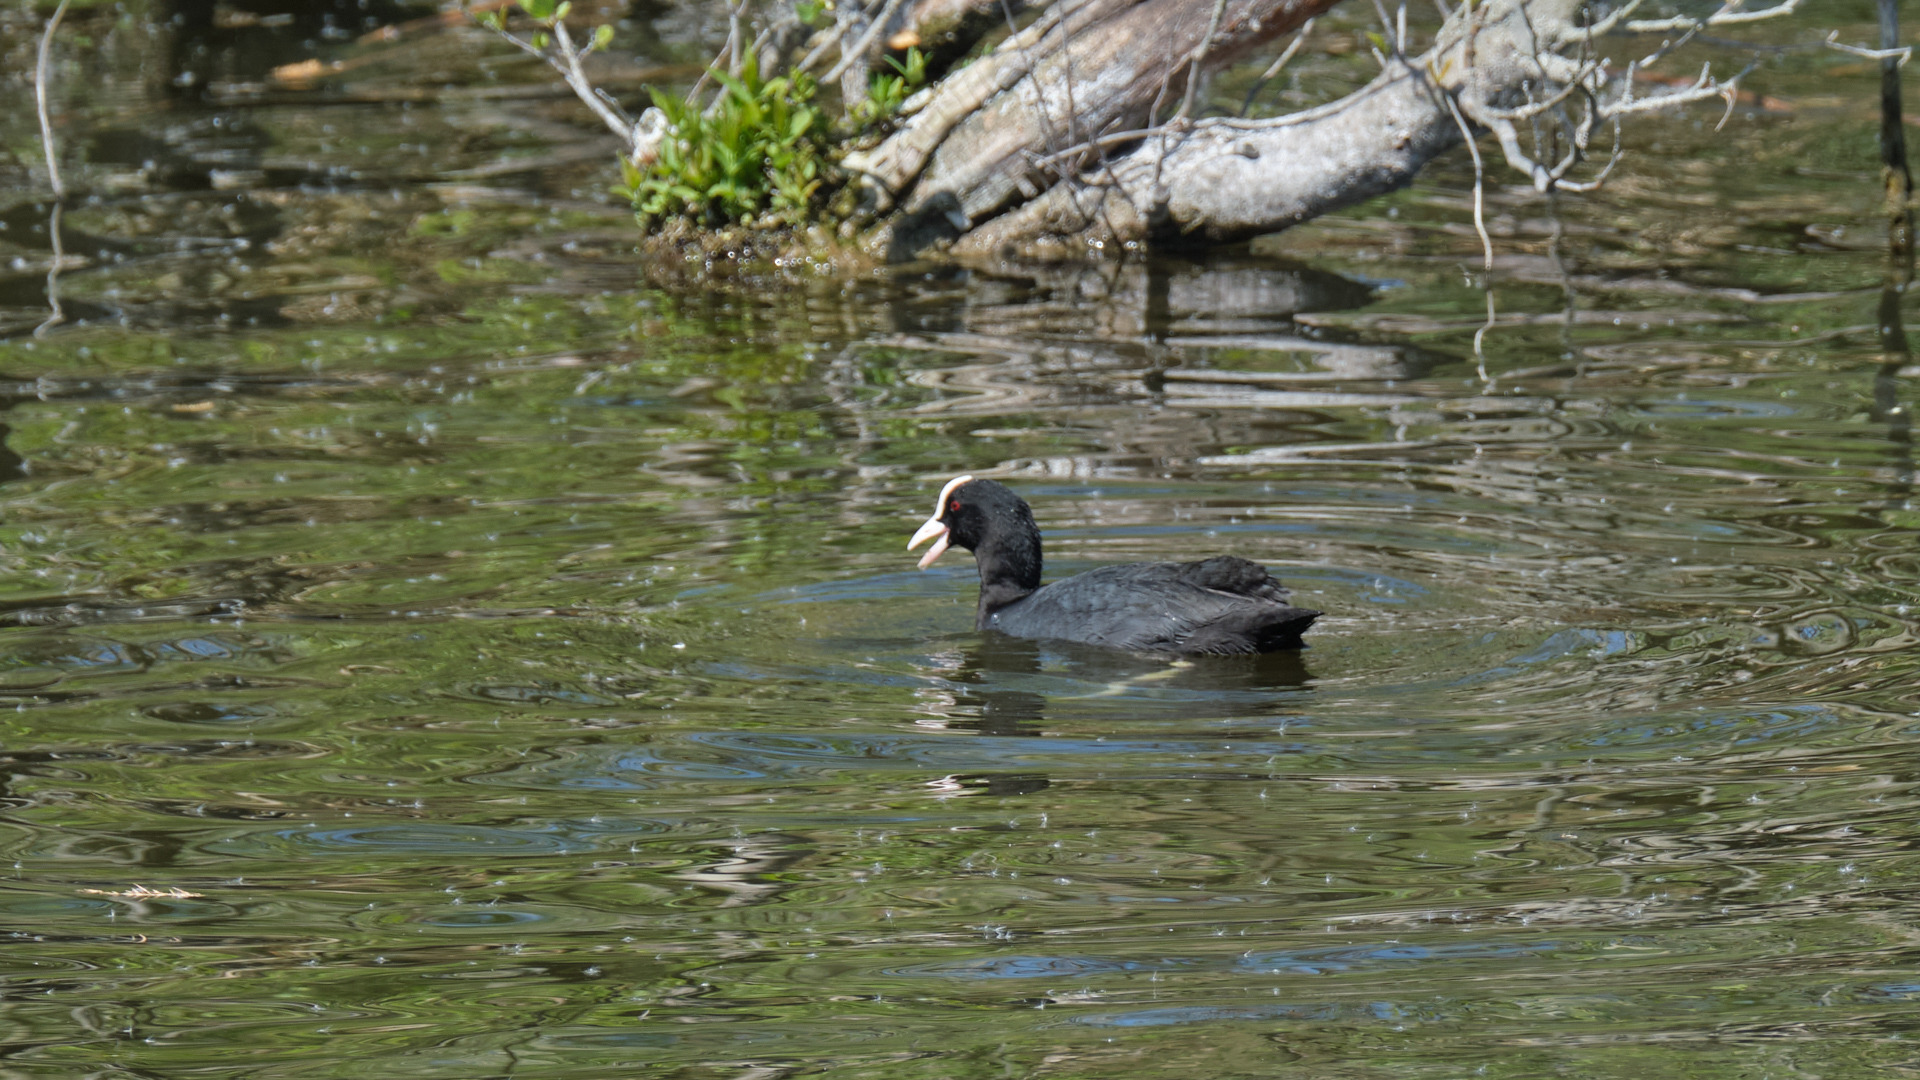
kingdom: Animalia
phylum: Chordata
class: Aves
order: Gruiformes
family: Rallidae
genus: Fulica
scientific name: Fulica atra
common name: Eurasian coot
